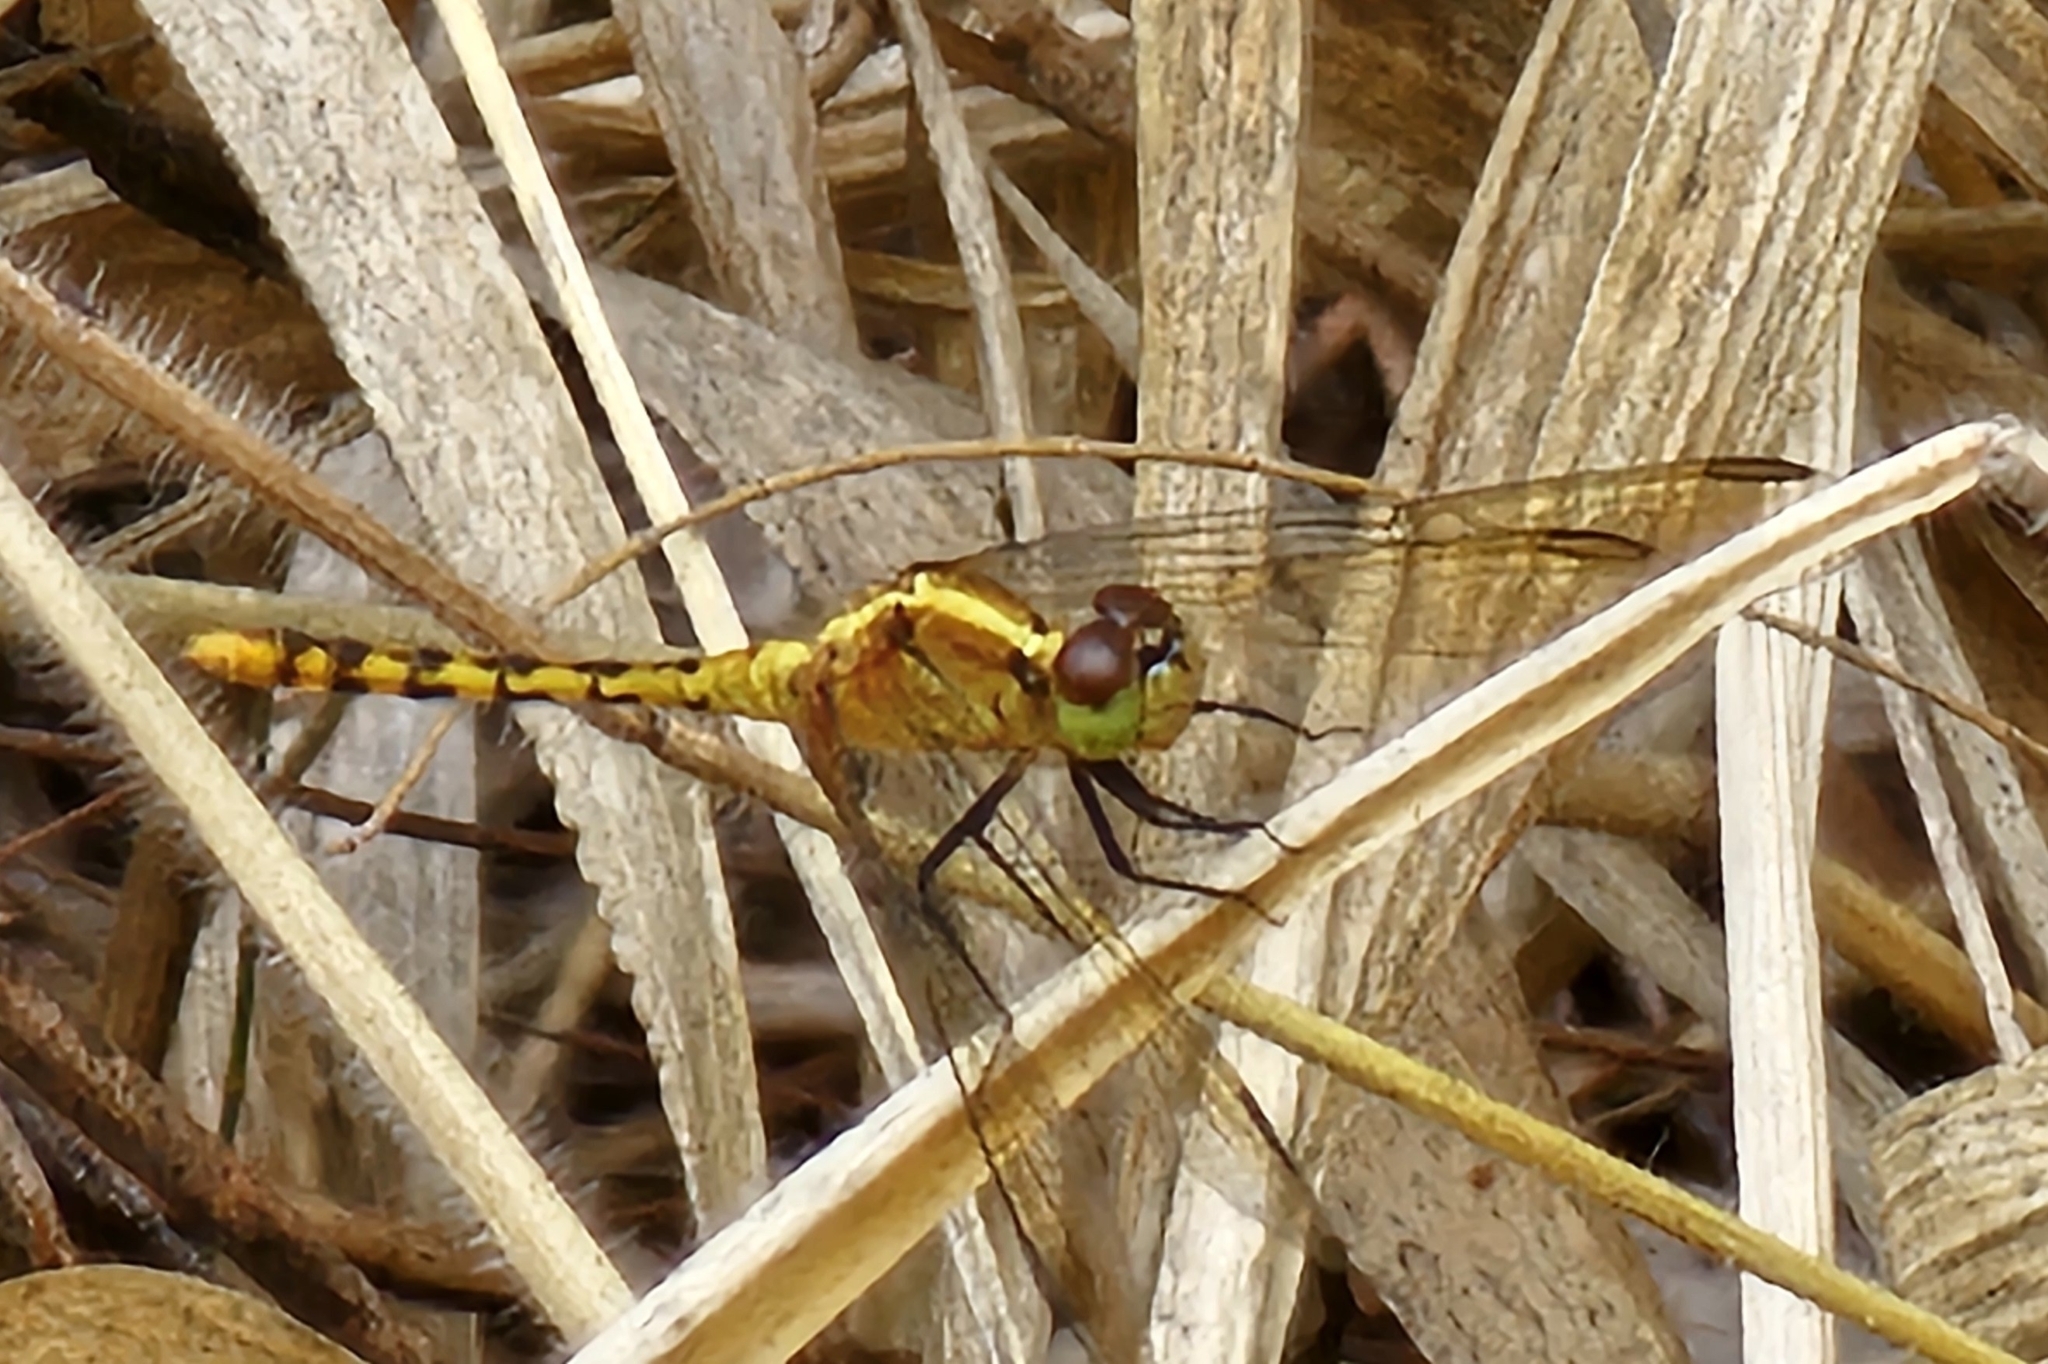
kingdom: Animalia
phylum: Arthropoda
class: Insecta
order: Odonata
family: Libellulidae
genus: Diplacodes
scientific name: Diplacodes melanopsis
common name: Black-faced percher
